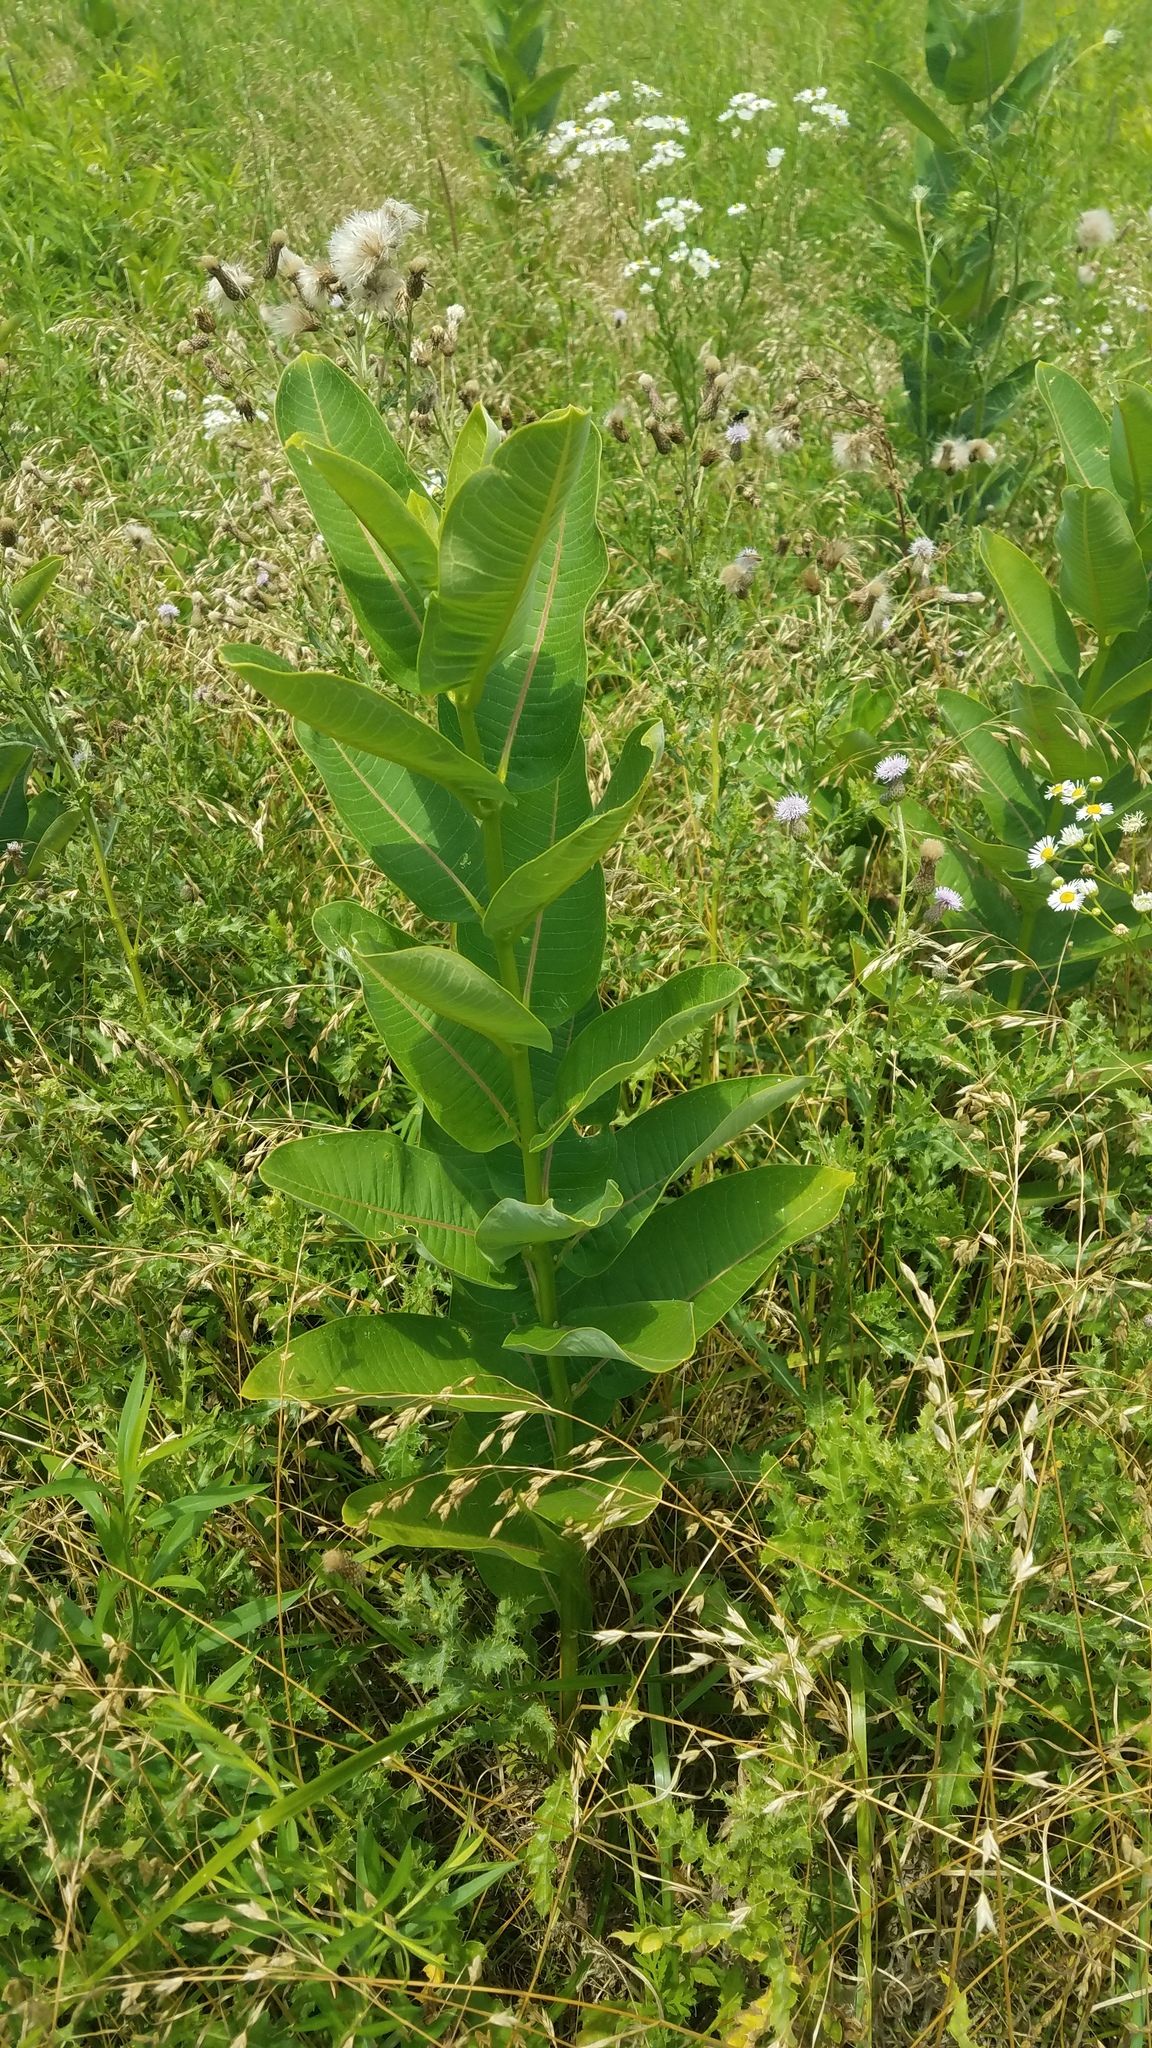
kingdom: Plantae
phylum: Tracheophyta
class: Magnoliopsida
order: Gentianales
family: Apocynaceae
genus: Asclepias
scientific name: Asclepias syriaca
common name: Common milkweed
